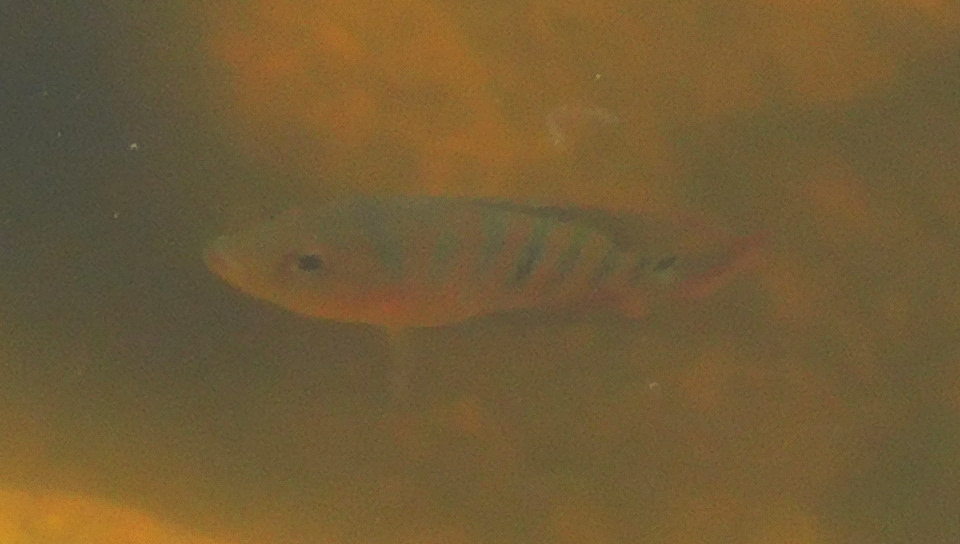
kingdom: Animalia
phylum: Chordata
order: Perciformes
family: Cichlidae
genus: Mayaheros
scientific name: Mayaheros urophthalmus
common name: Mayan cichlid
